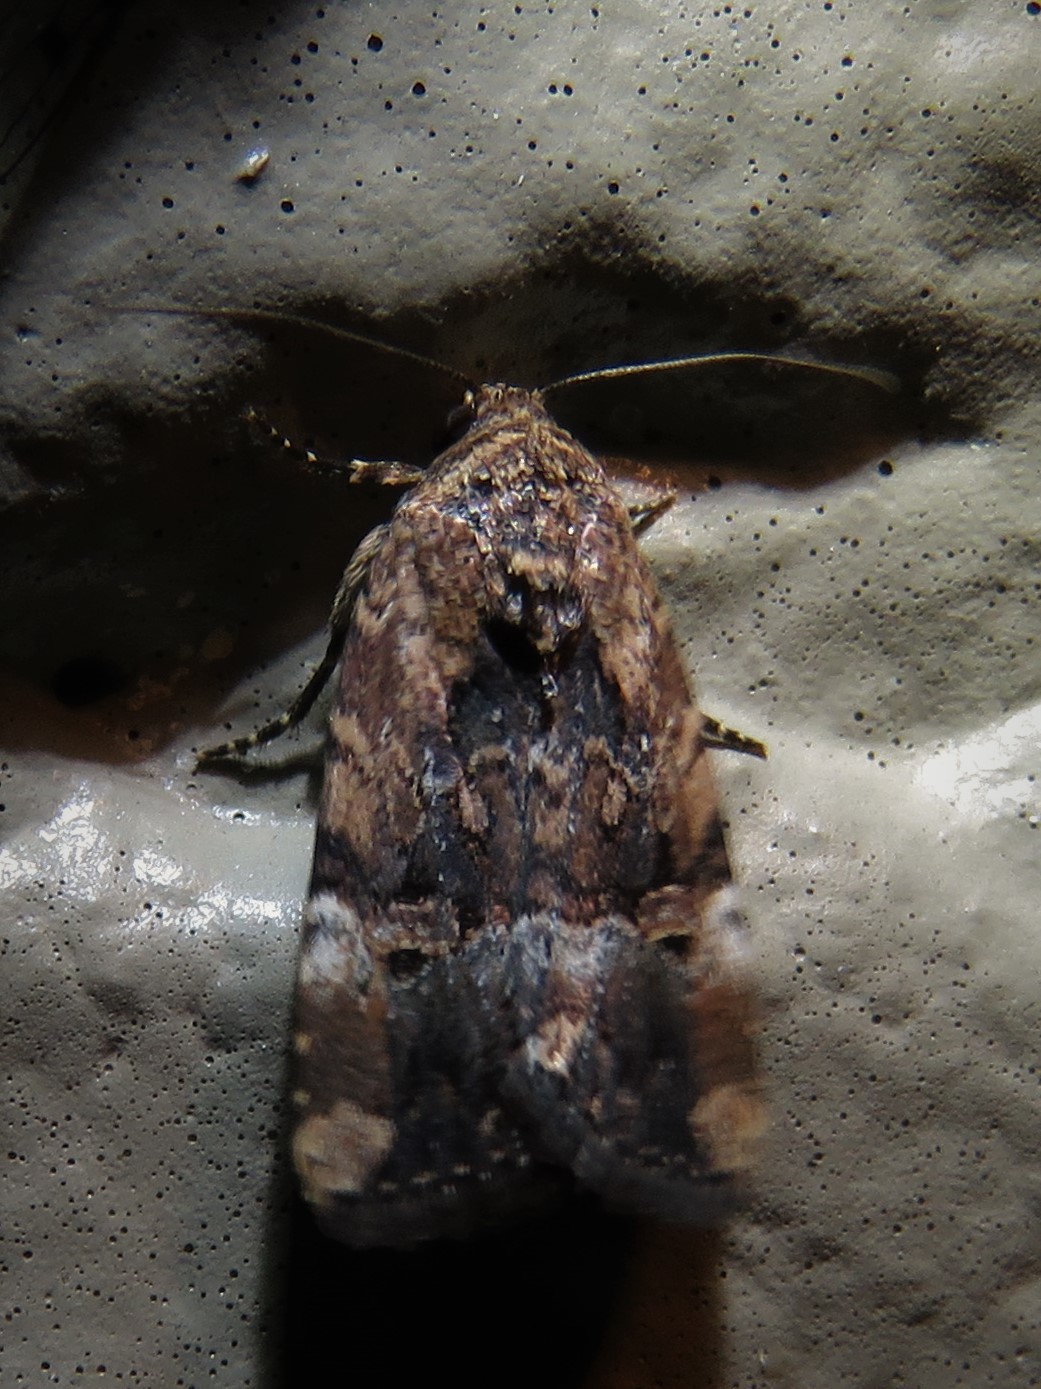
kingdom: Animalia
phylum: Arthropoda
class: Insecta
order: Lepidoptera
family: Noctuidae
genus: Elaphria
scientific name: Elaphria chalcedonia
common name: Chalcedony midget
